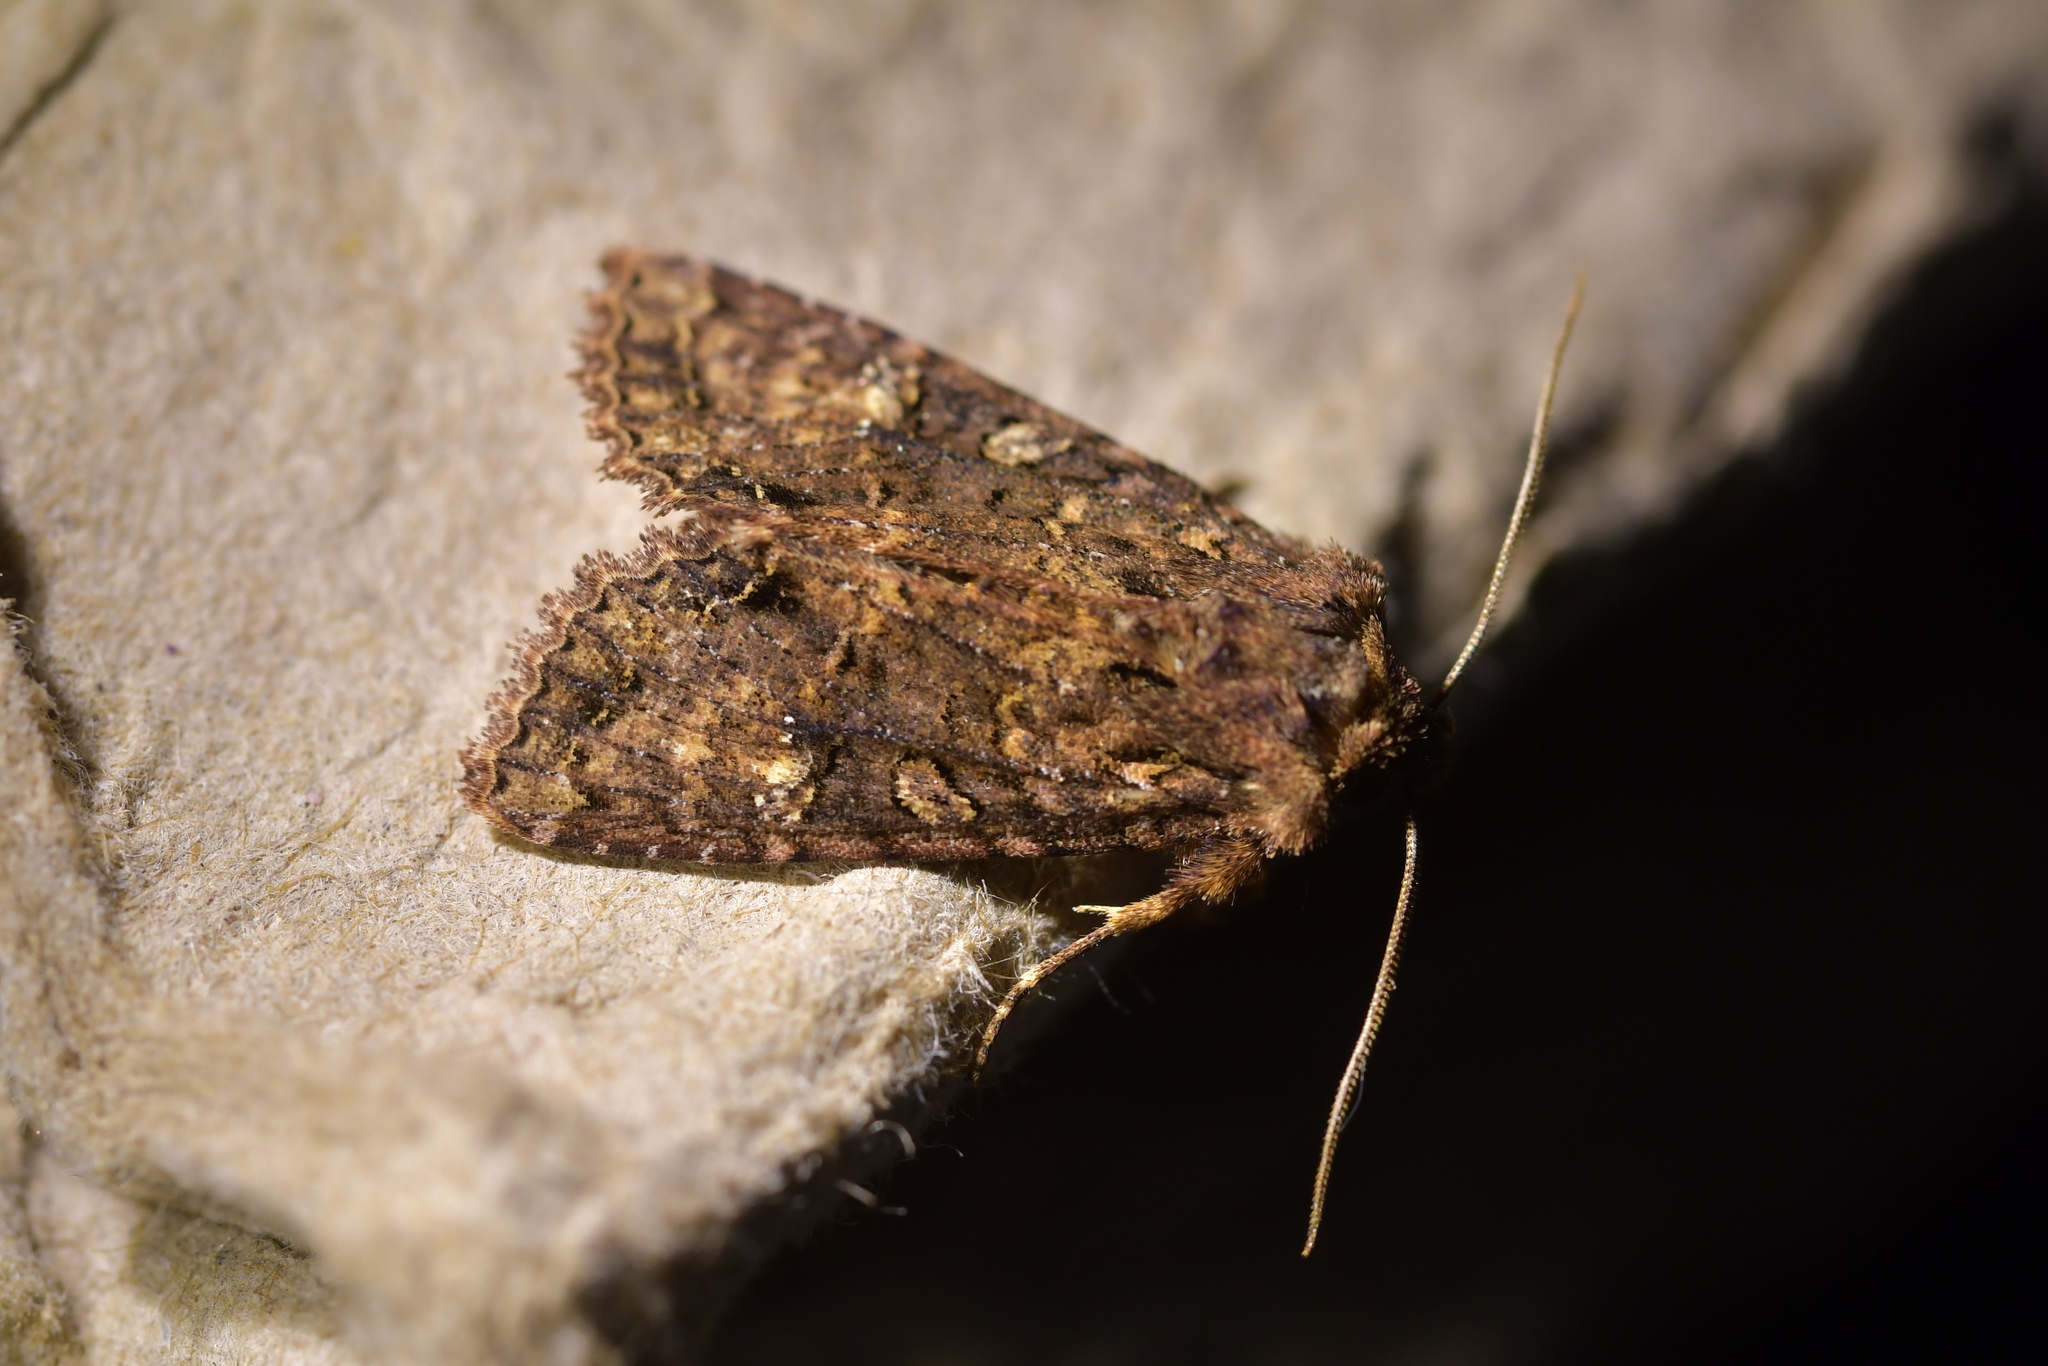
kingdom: Animalia
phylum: Arthropoda
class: Insecta
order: Lepidoptera
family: Noctuidae
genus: Meterana
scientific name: Meterana
